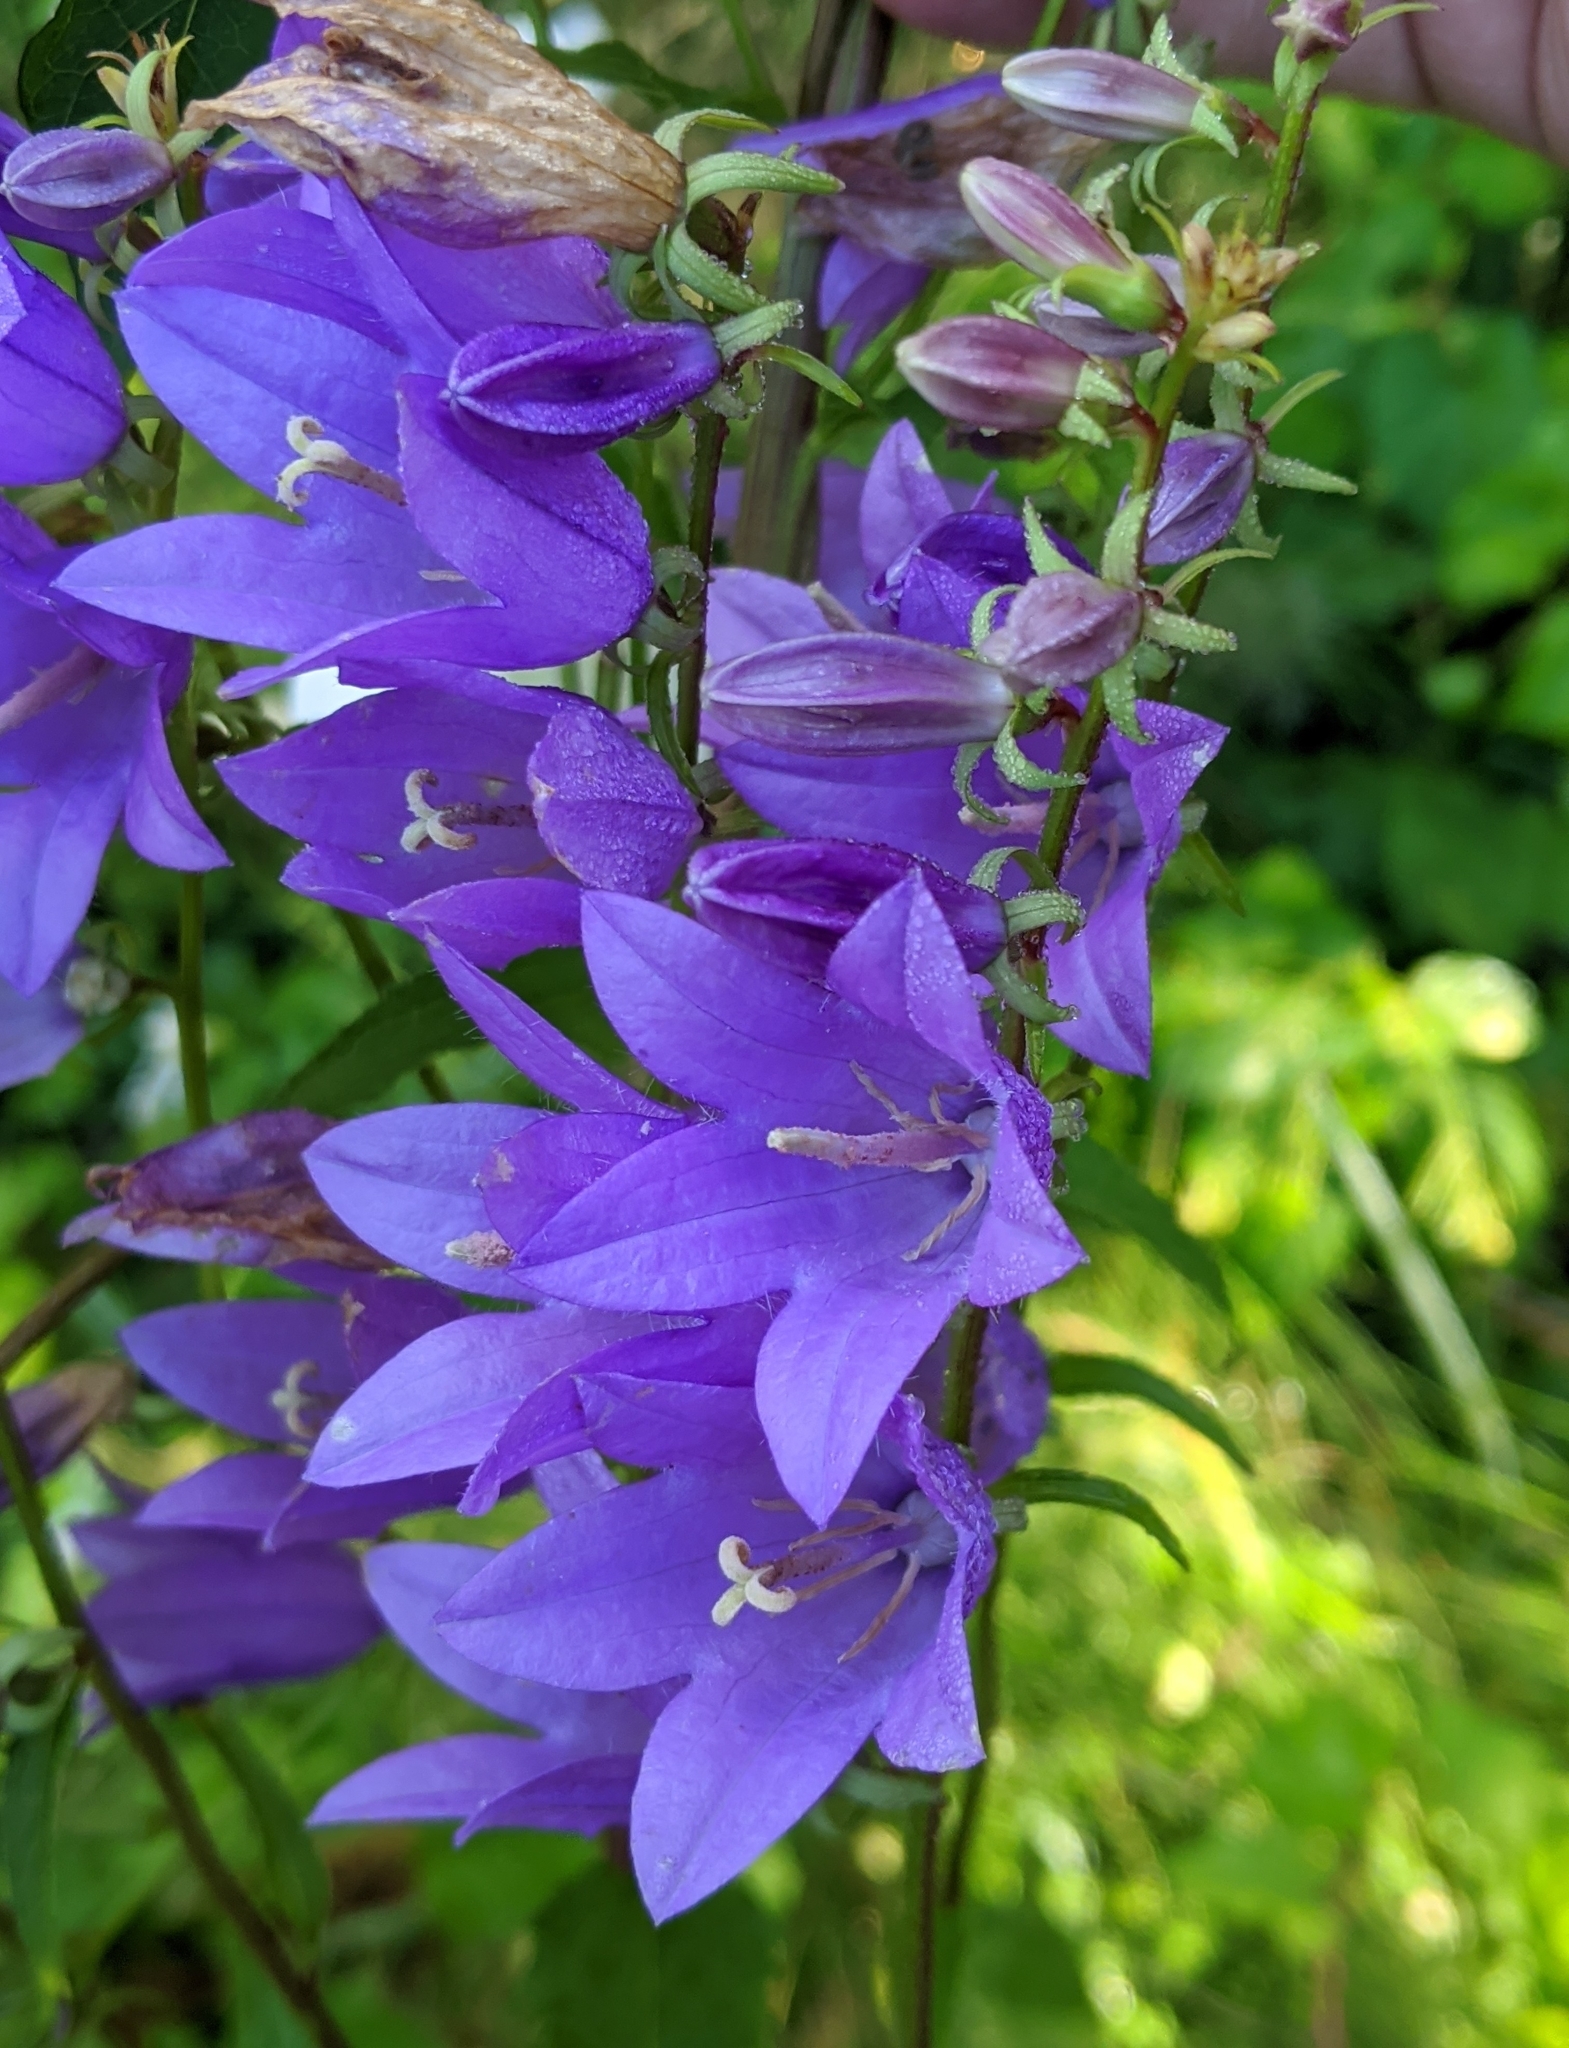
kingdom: Plantae
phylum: Tracheophyta
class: Magnoliopsida
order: Asterales
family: Campanulaceae
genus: Campanula
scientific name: Campanula rapunculoides
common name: Creeping bellflower
